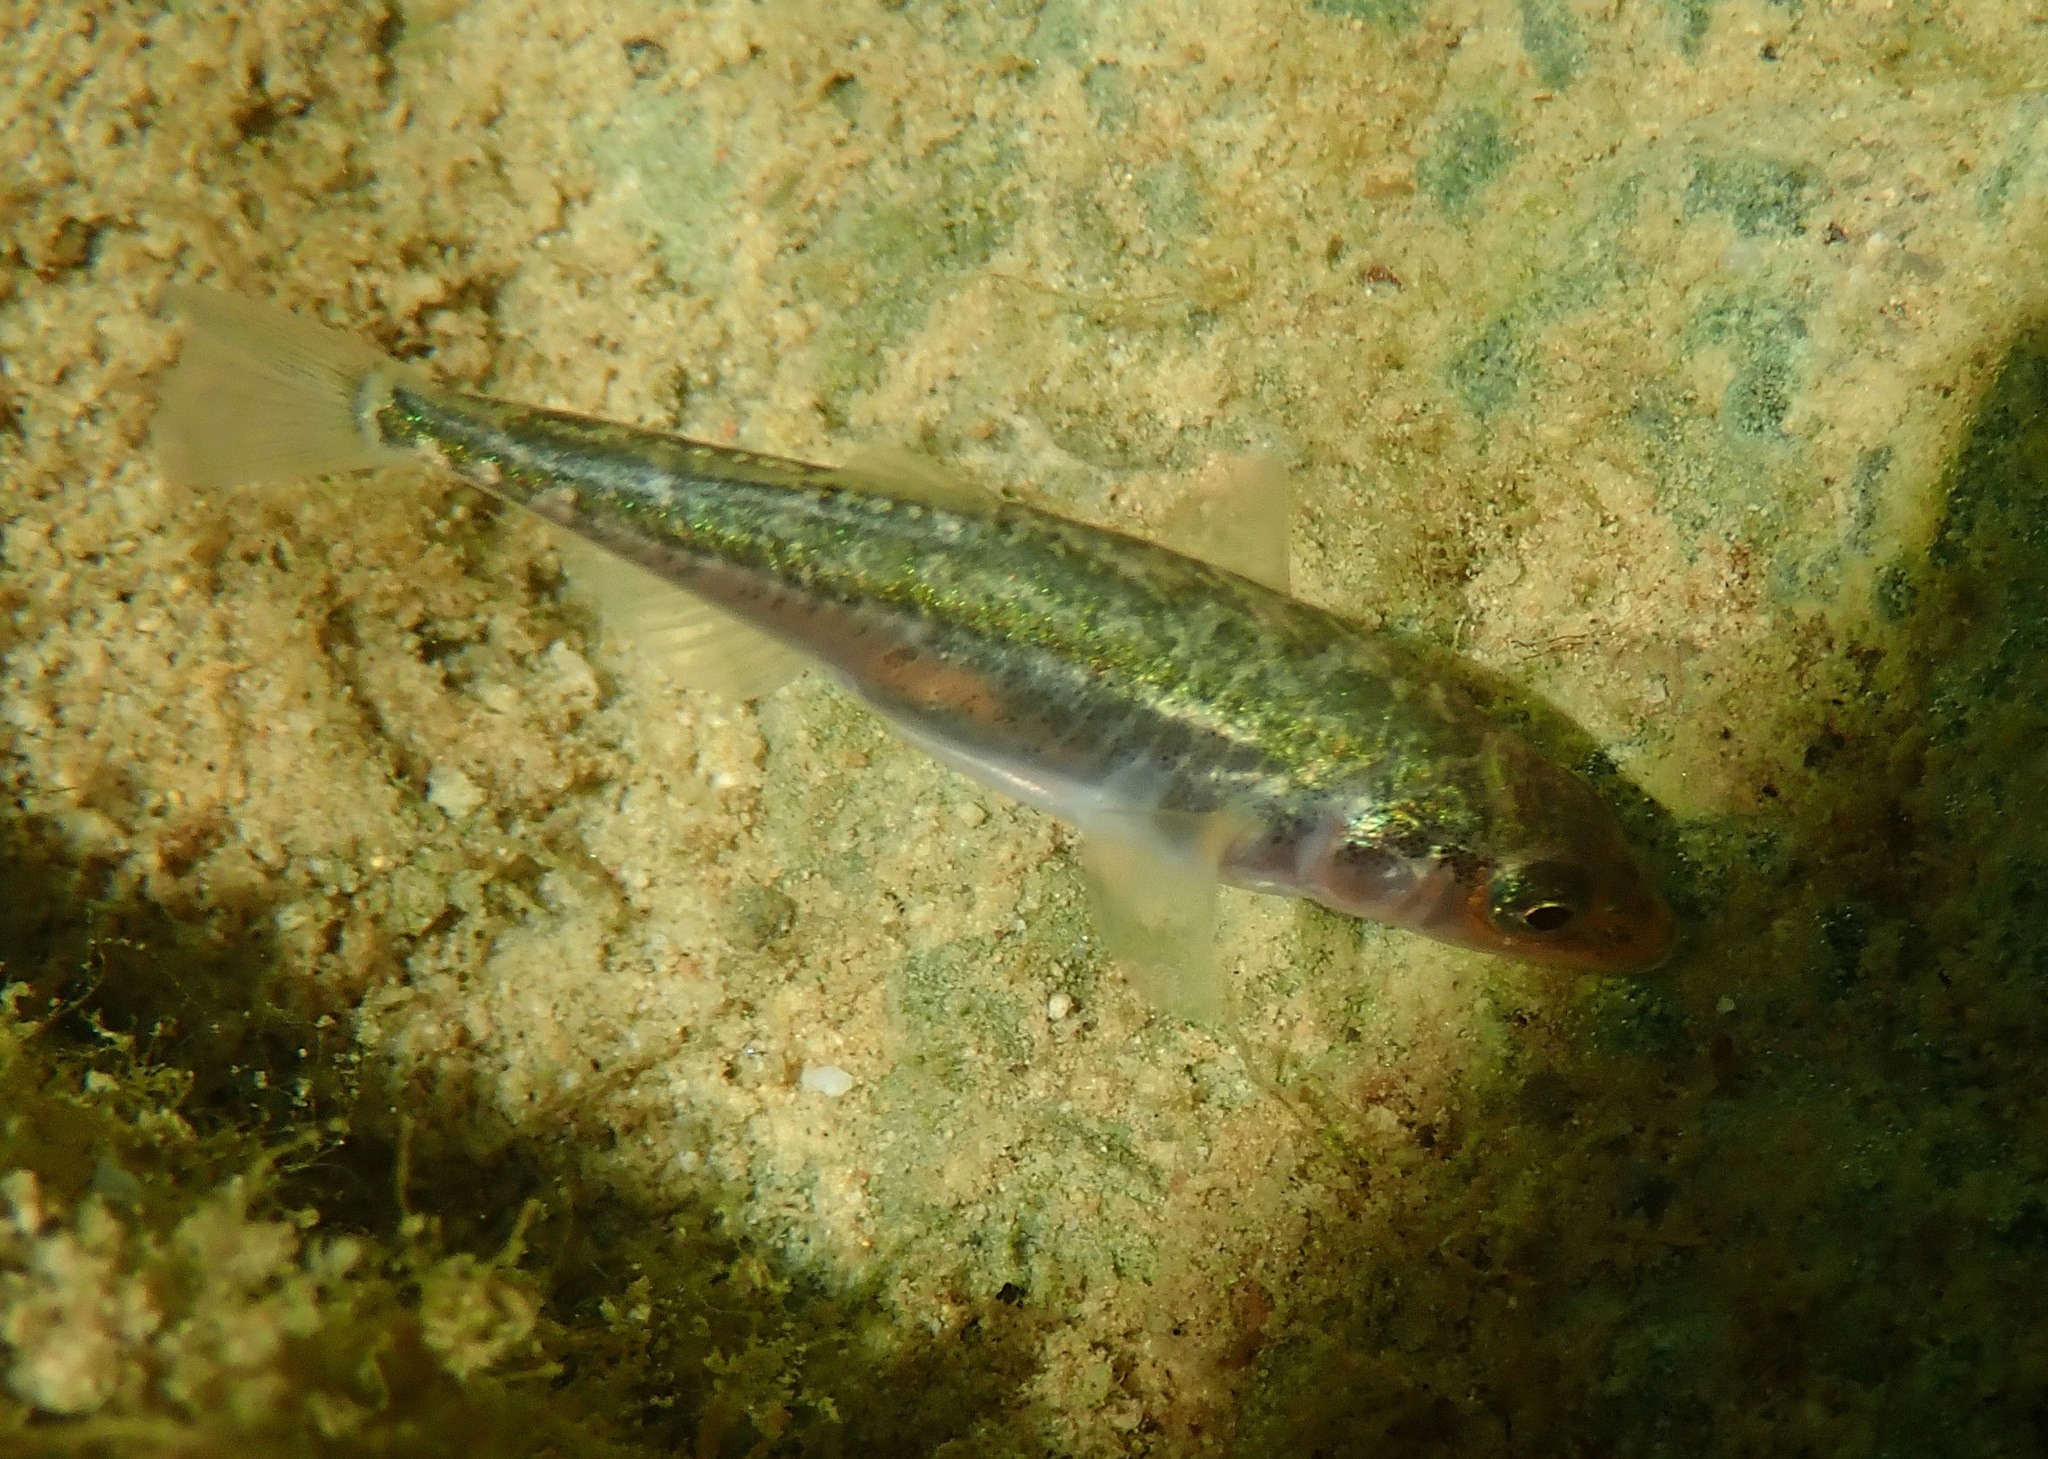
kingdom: Animalia
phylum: Chordata
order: Gasterosteiformes
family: Gasterosteidae
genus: Gasterosteus
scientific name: Gasterosteus aculeatus
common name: Three-spined stickleback
